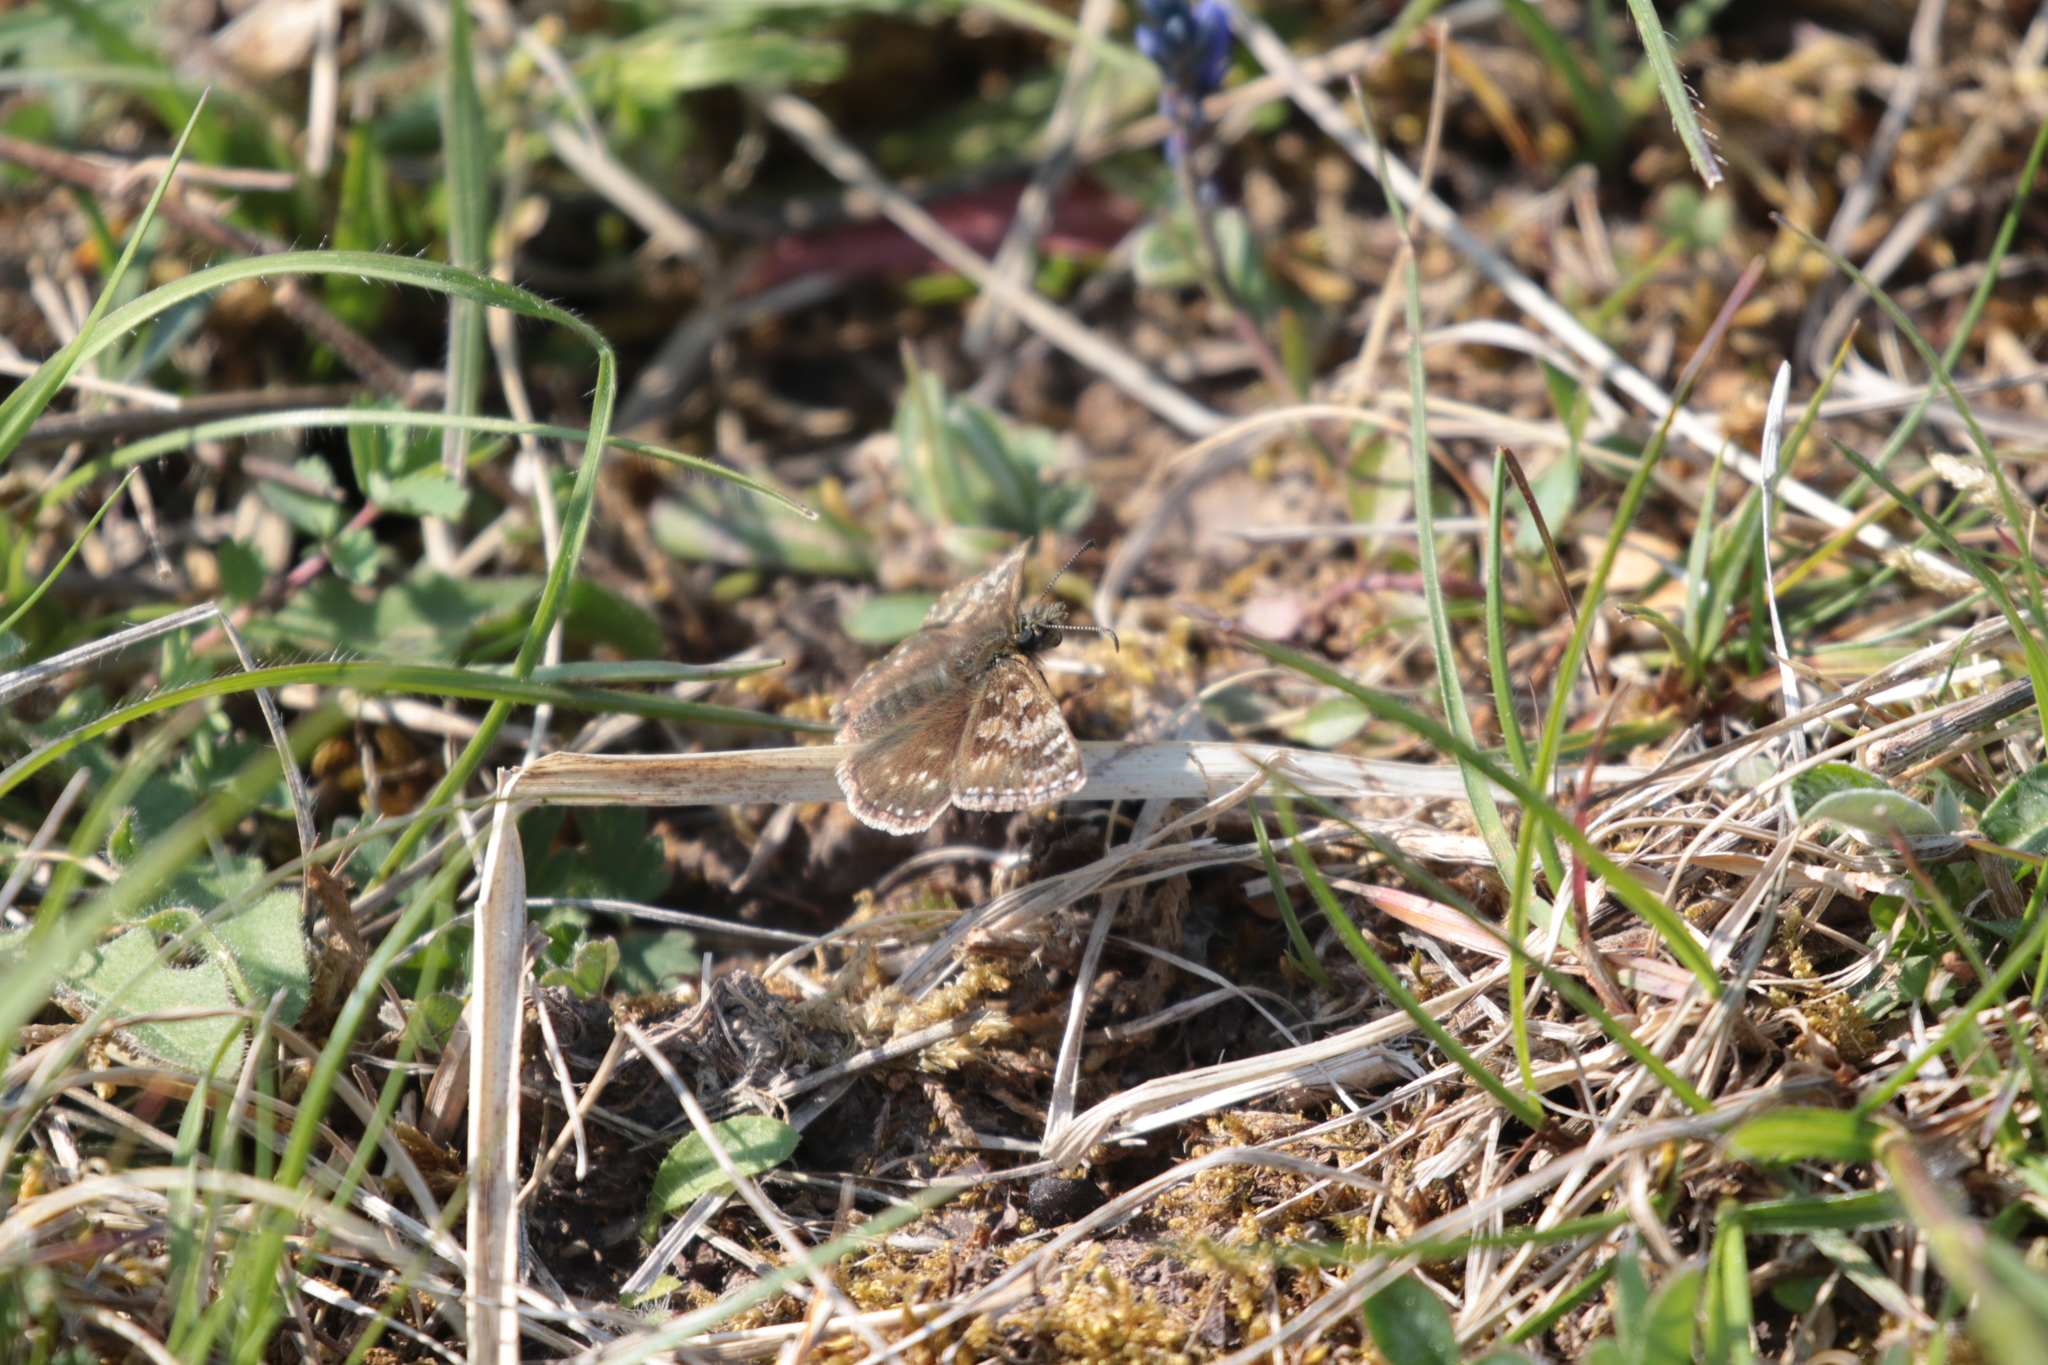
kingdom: Animalia
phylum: Arthropoda
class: Insecta
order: Lepidoptera
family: Hesperiidae
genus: Erynnis
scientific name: Erynnis tages
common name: Dingy skipper
